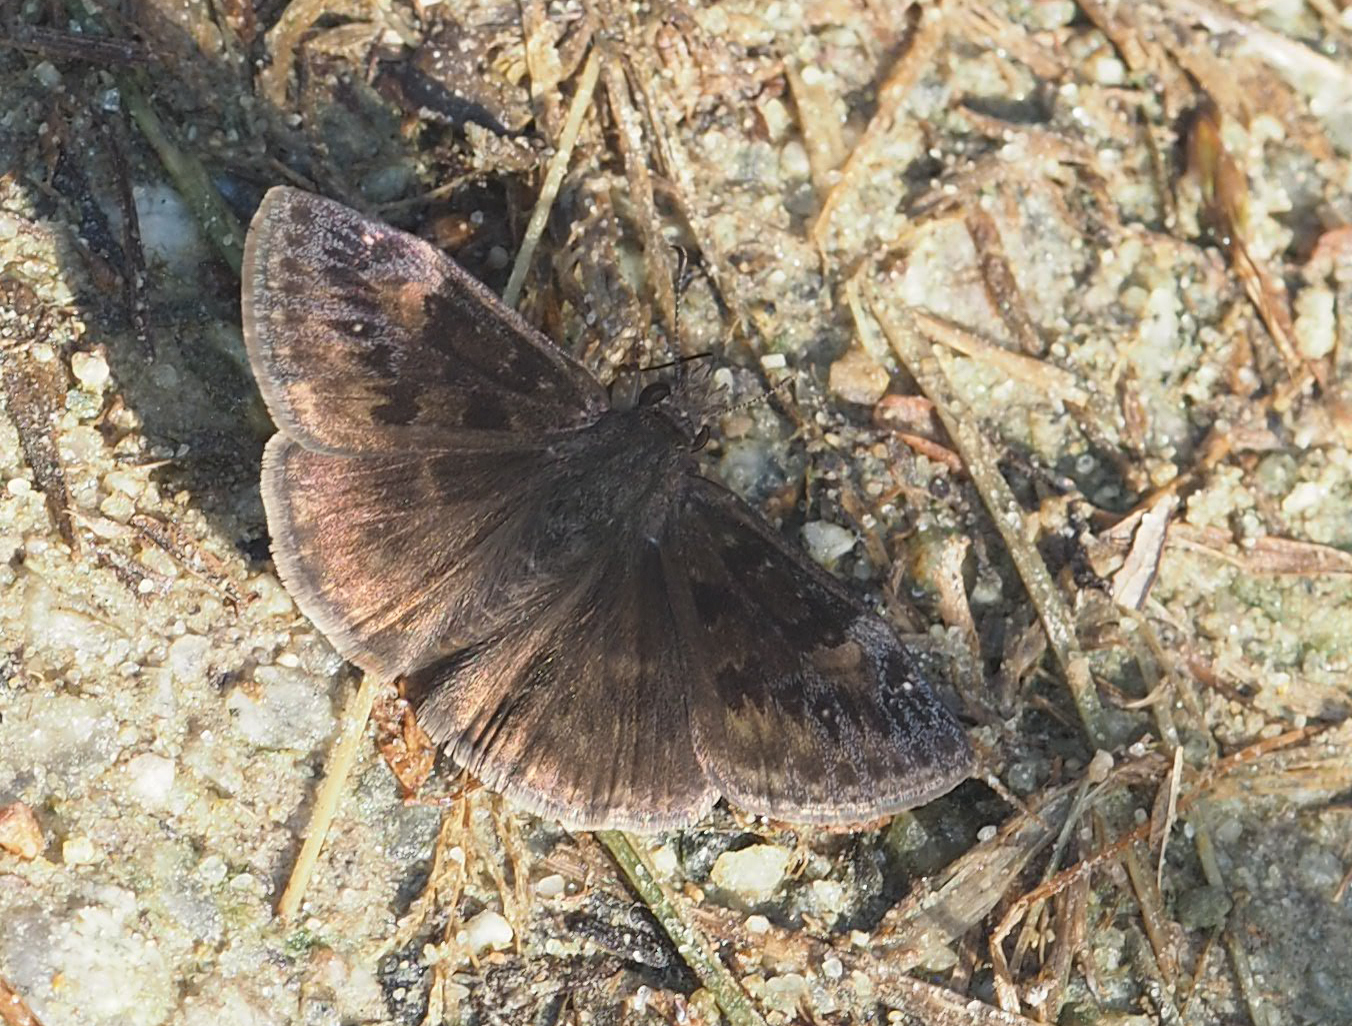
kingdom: Animalia
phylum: Arthropoda
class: Insecta
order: Lepidoptera
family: Hesperiidae
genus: Erynnis
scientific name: Erynnis horatius
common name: Horace's duskywing
